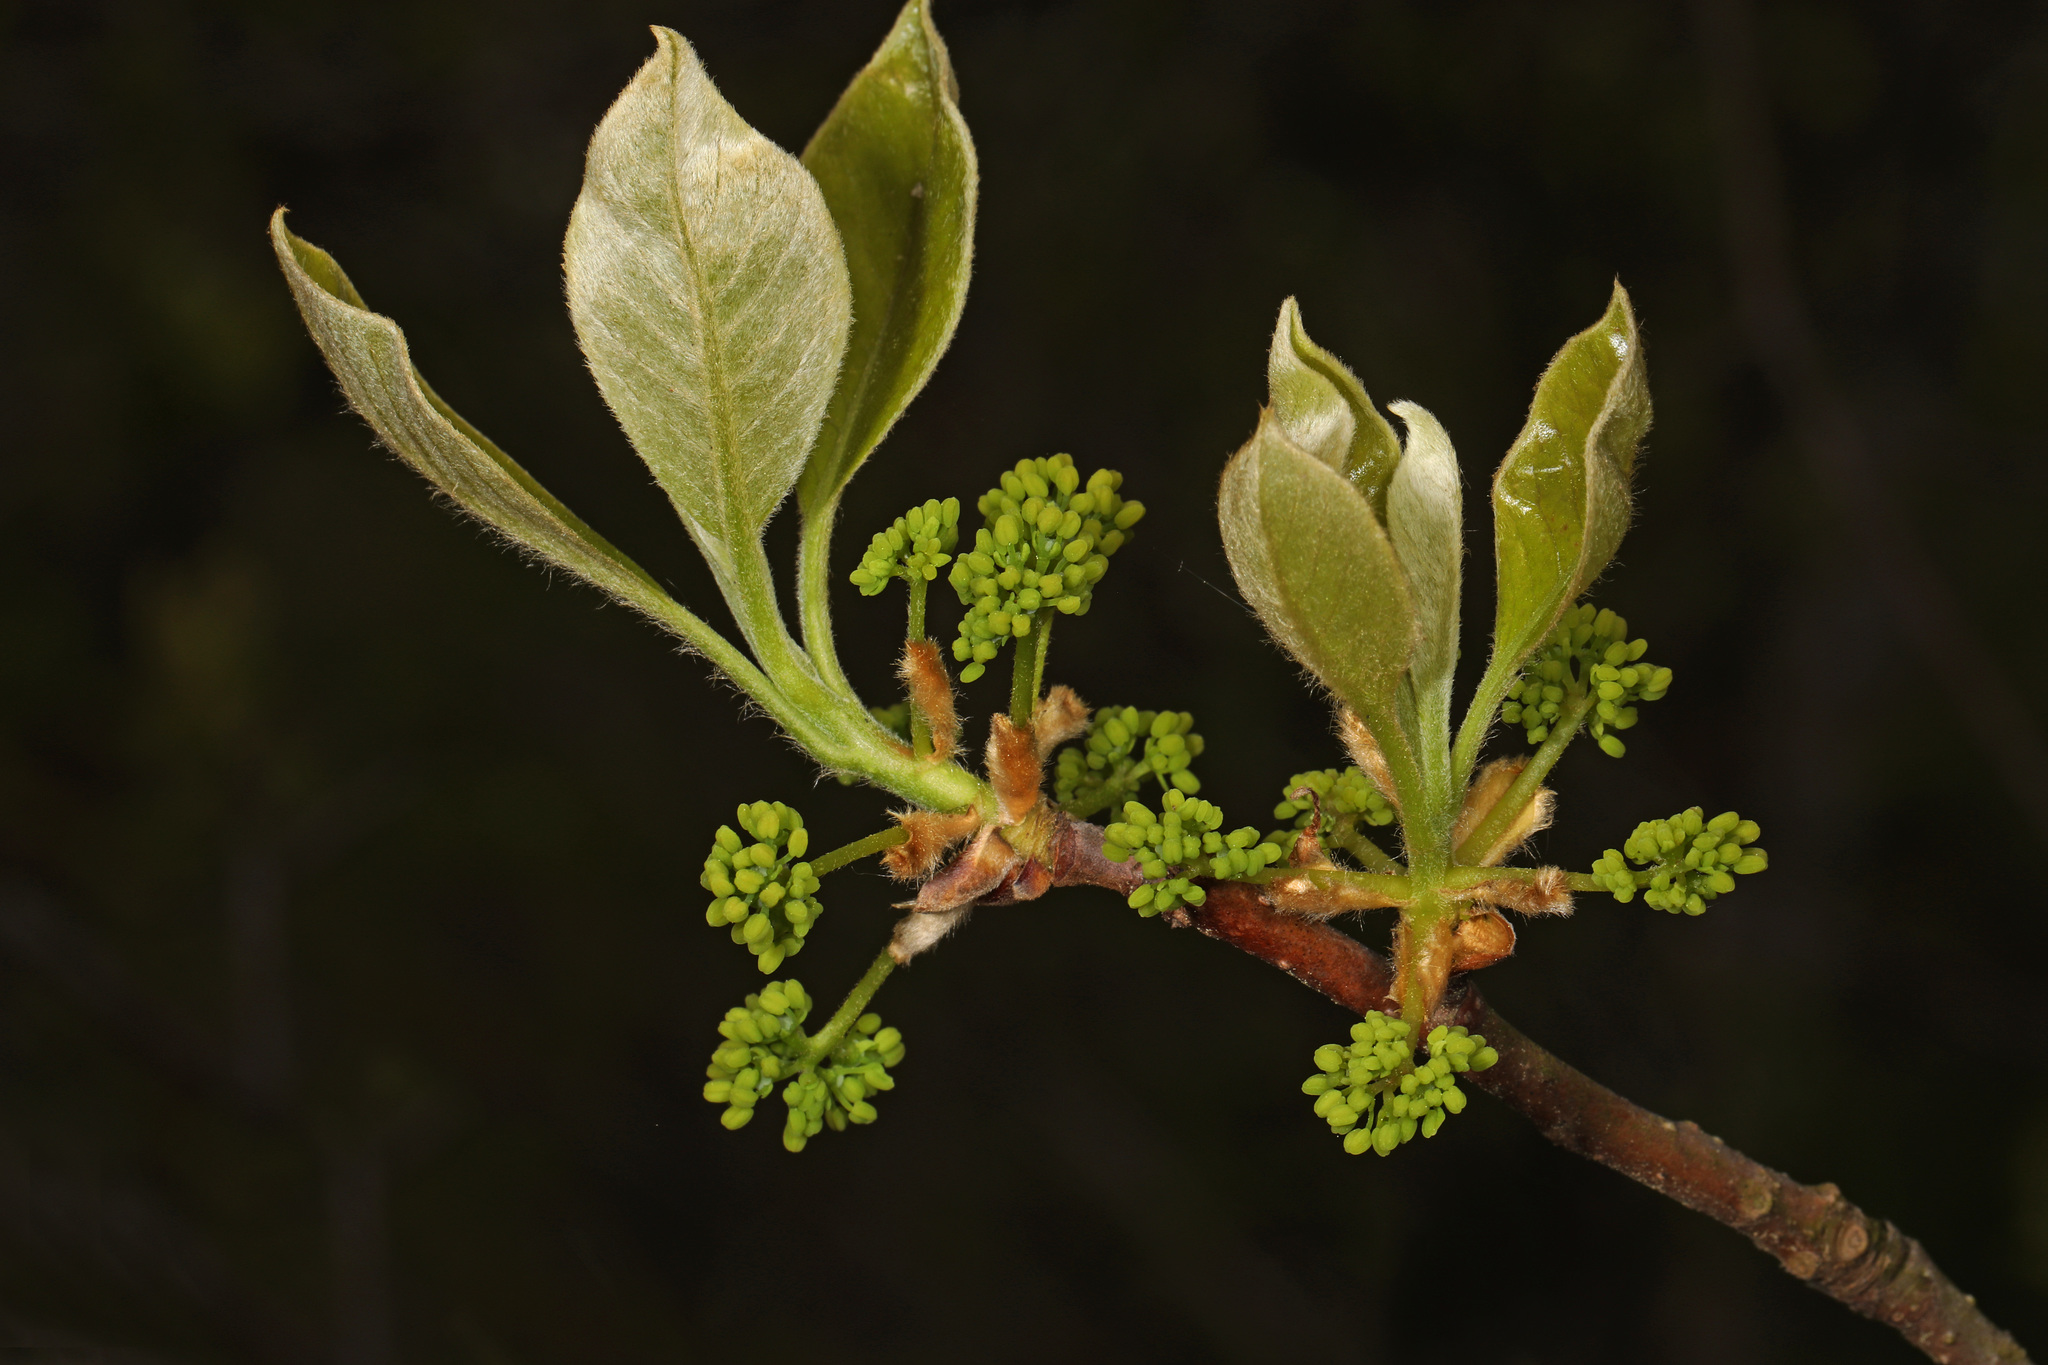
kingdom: Plantae
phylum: Tracheophyta
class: Magnoliopsida
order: Laurales
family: Lauraceae
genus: Sassafras
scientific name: Sassafras albidum
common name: Sassafras
